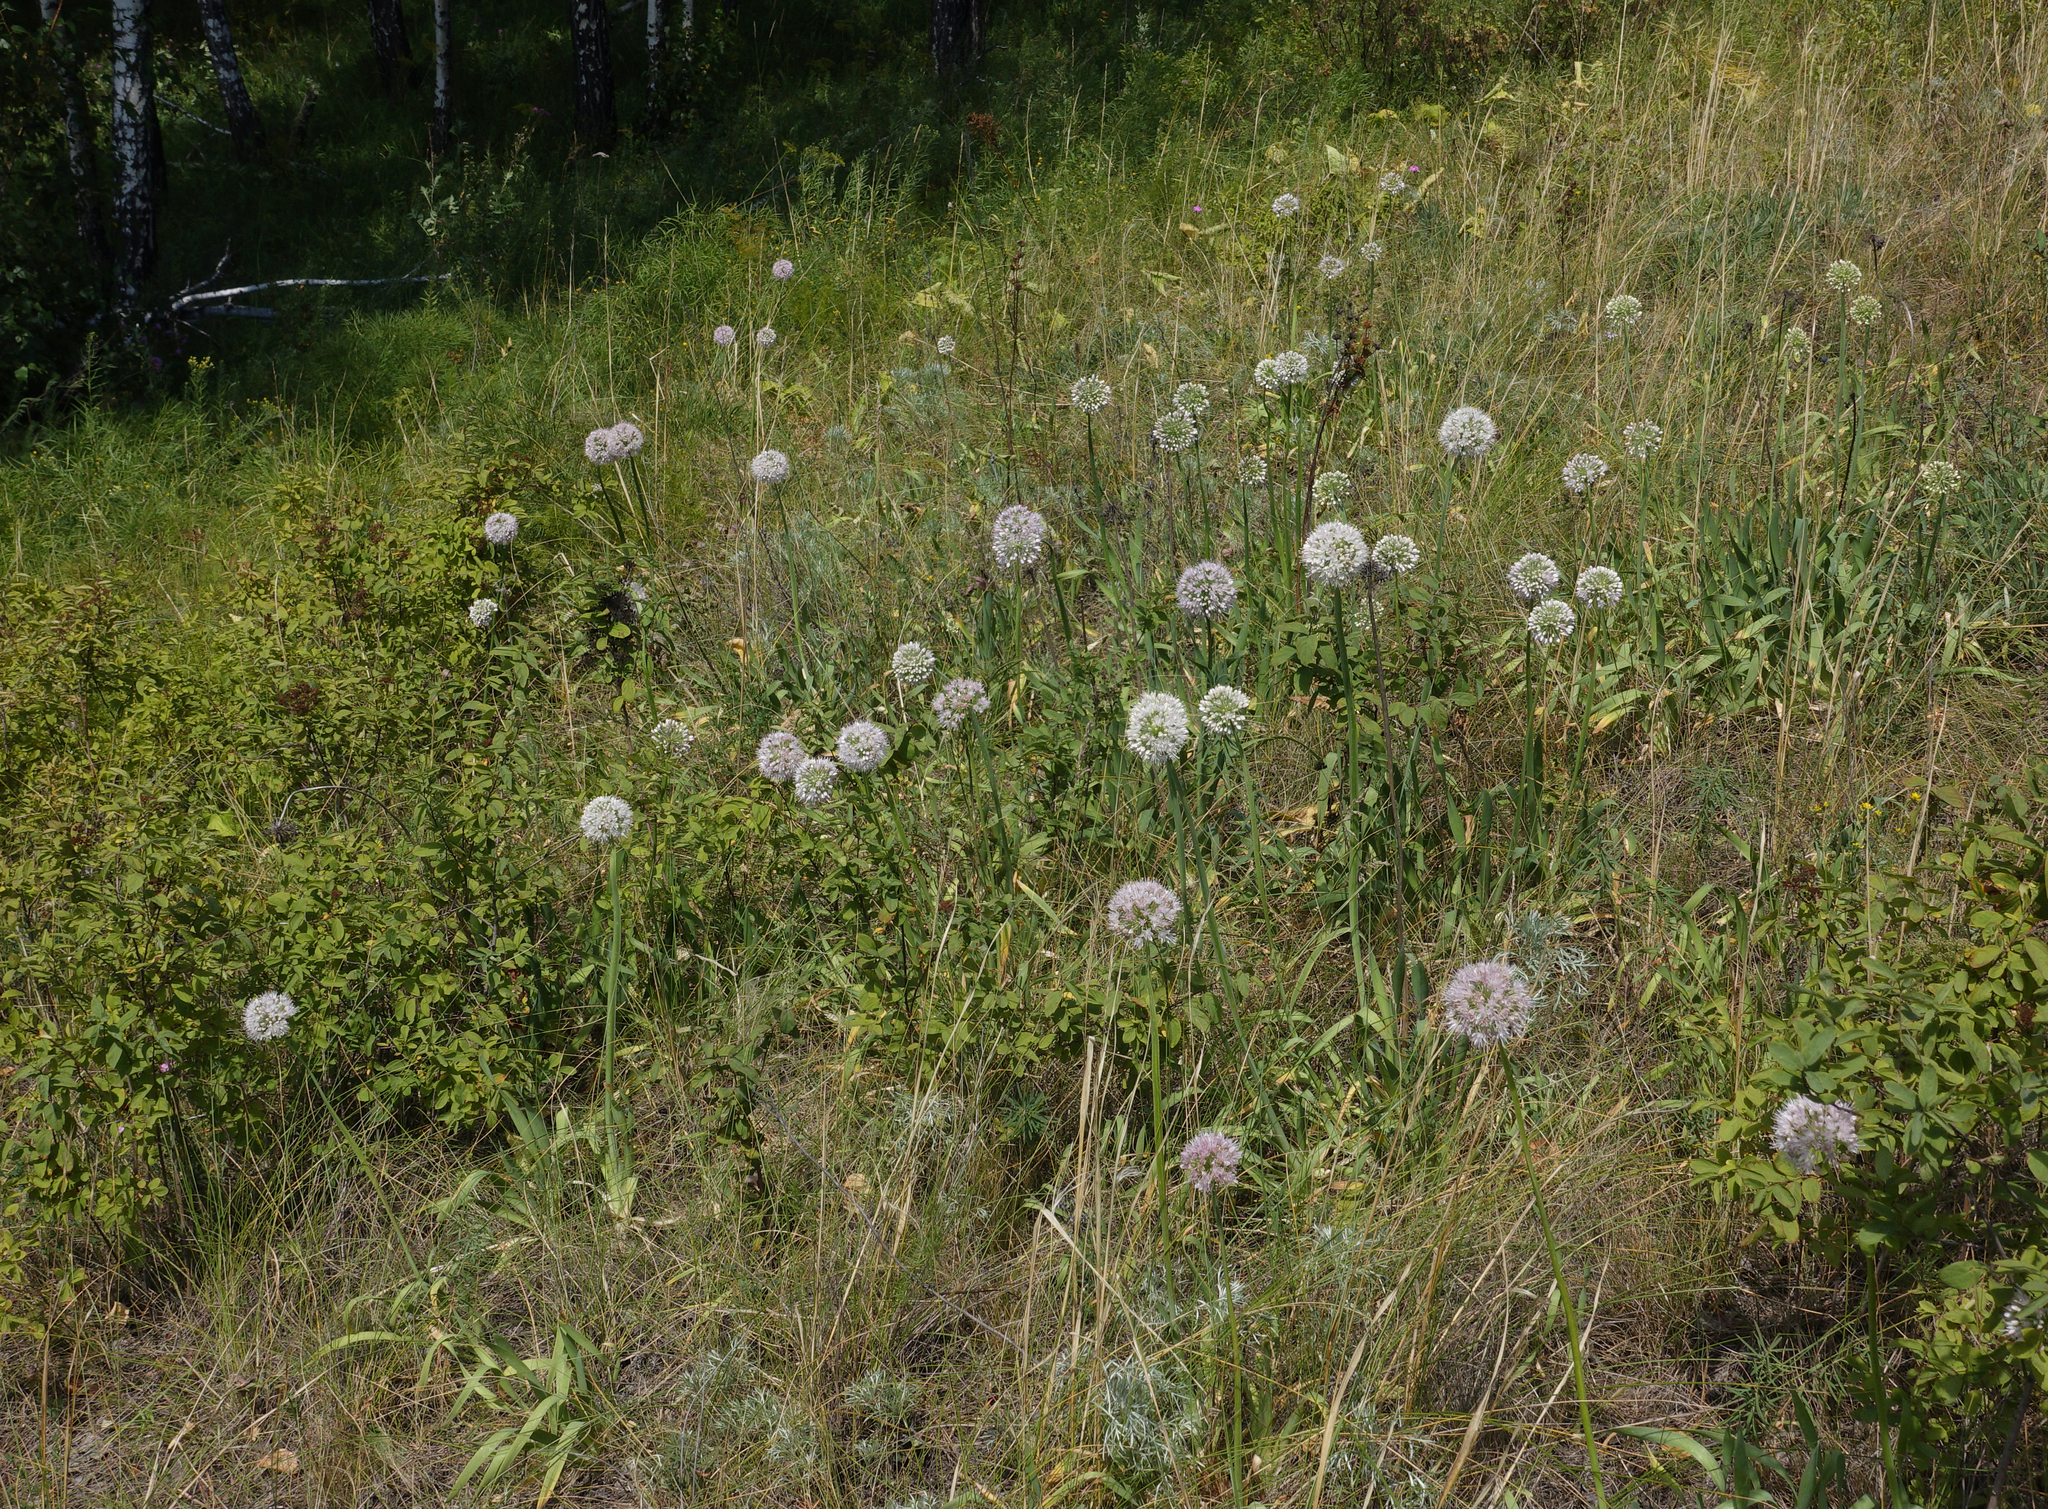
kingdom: Plantae
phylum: Tracheophyta
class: Liliopsida
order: Asparagales
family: Amaryllidaceae
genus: Allium
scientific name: Allium nutans
